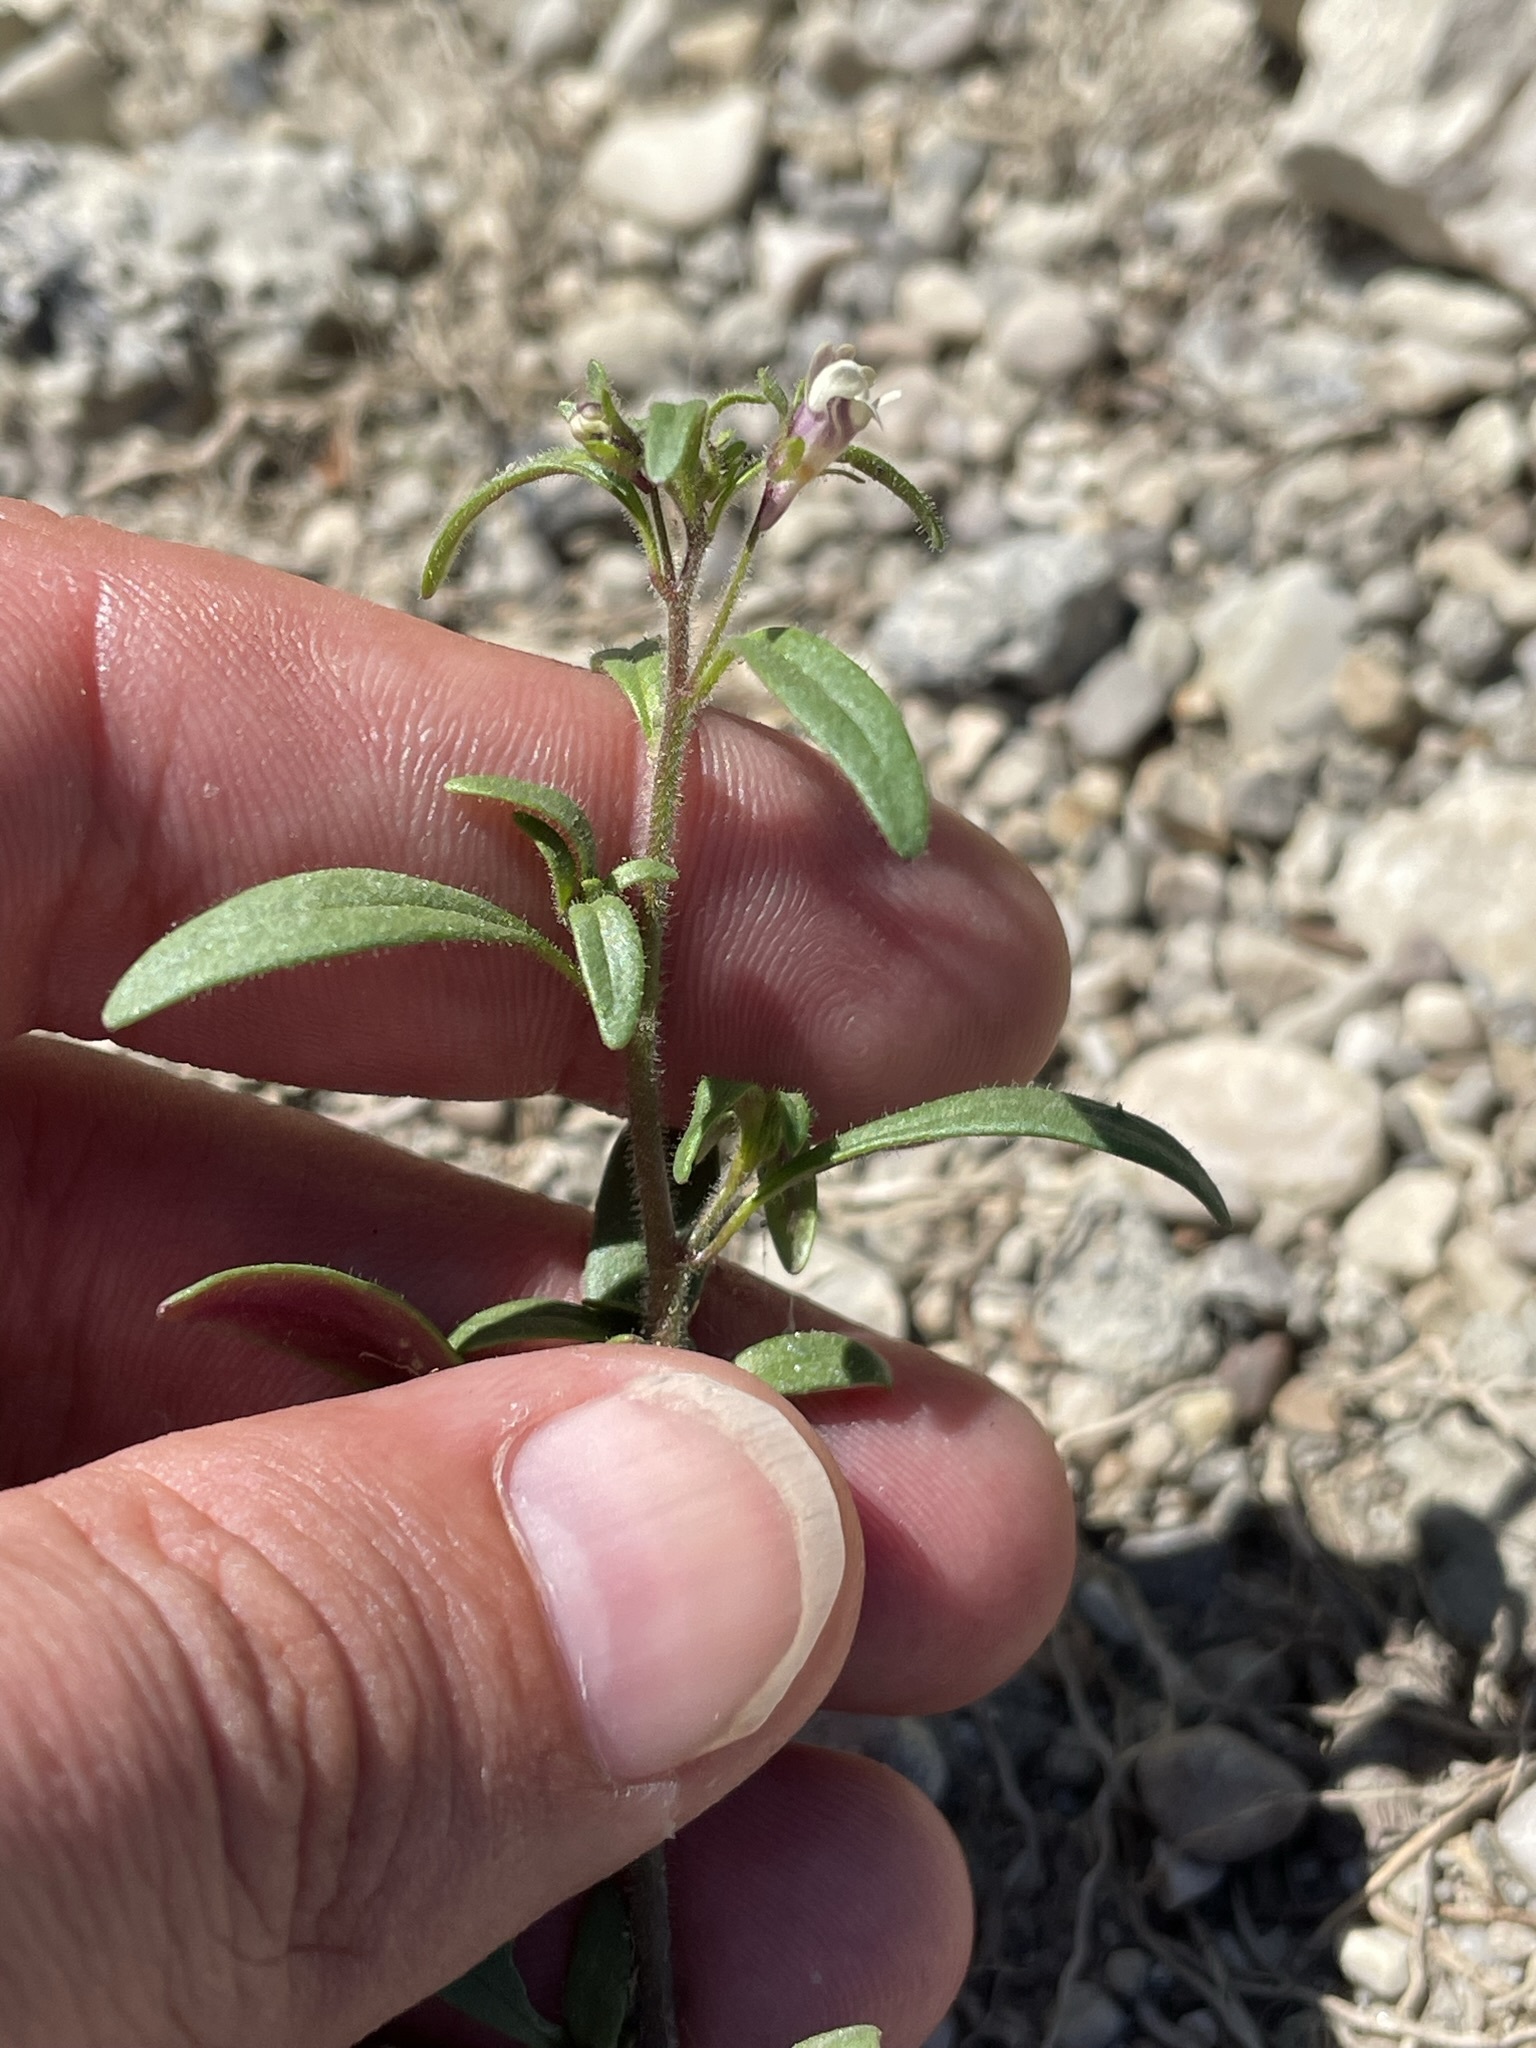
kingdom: Plantae
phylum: Tracheophyta
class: Magnoliopsida
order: Lamiales
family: Plantaginaceae
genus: Chaenorhinum
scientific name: Chaenorhinum minus
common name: Dwarf snapdragon
